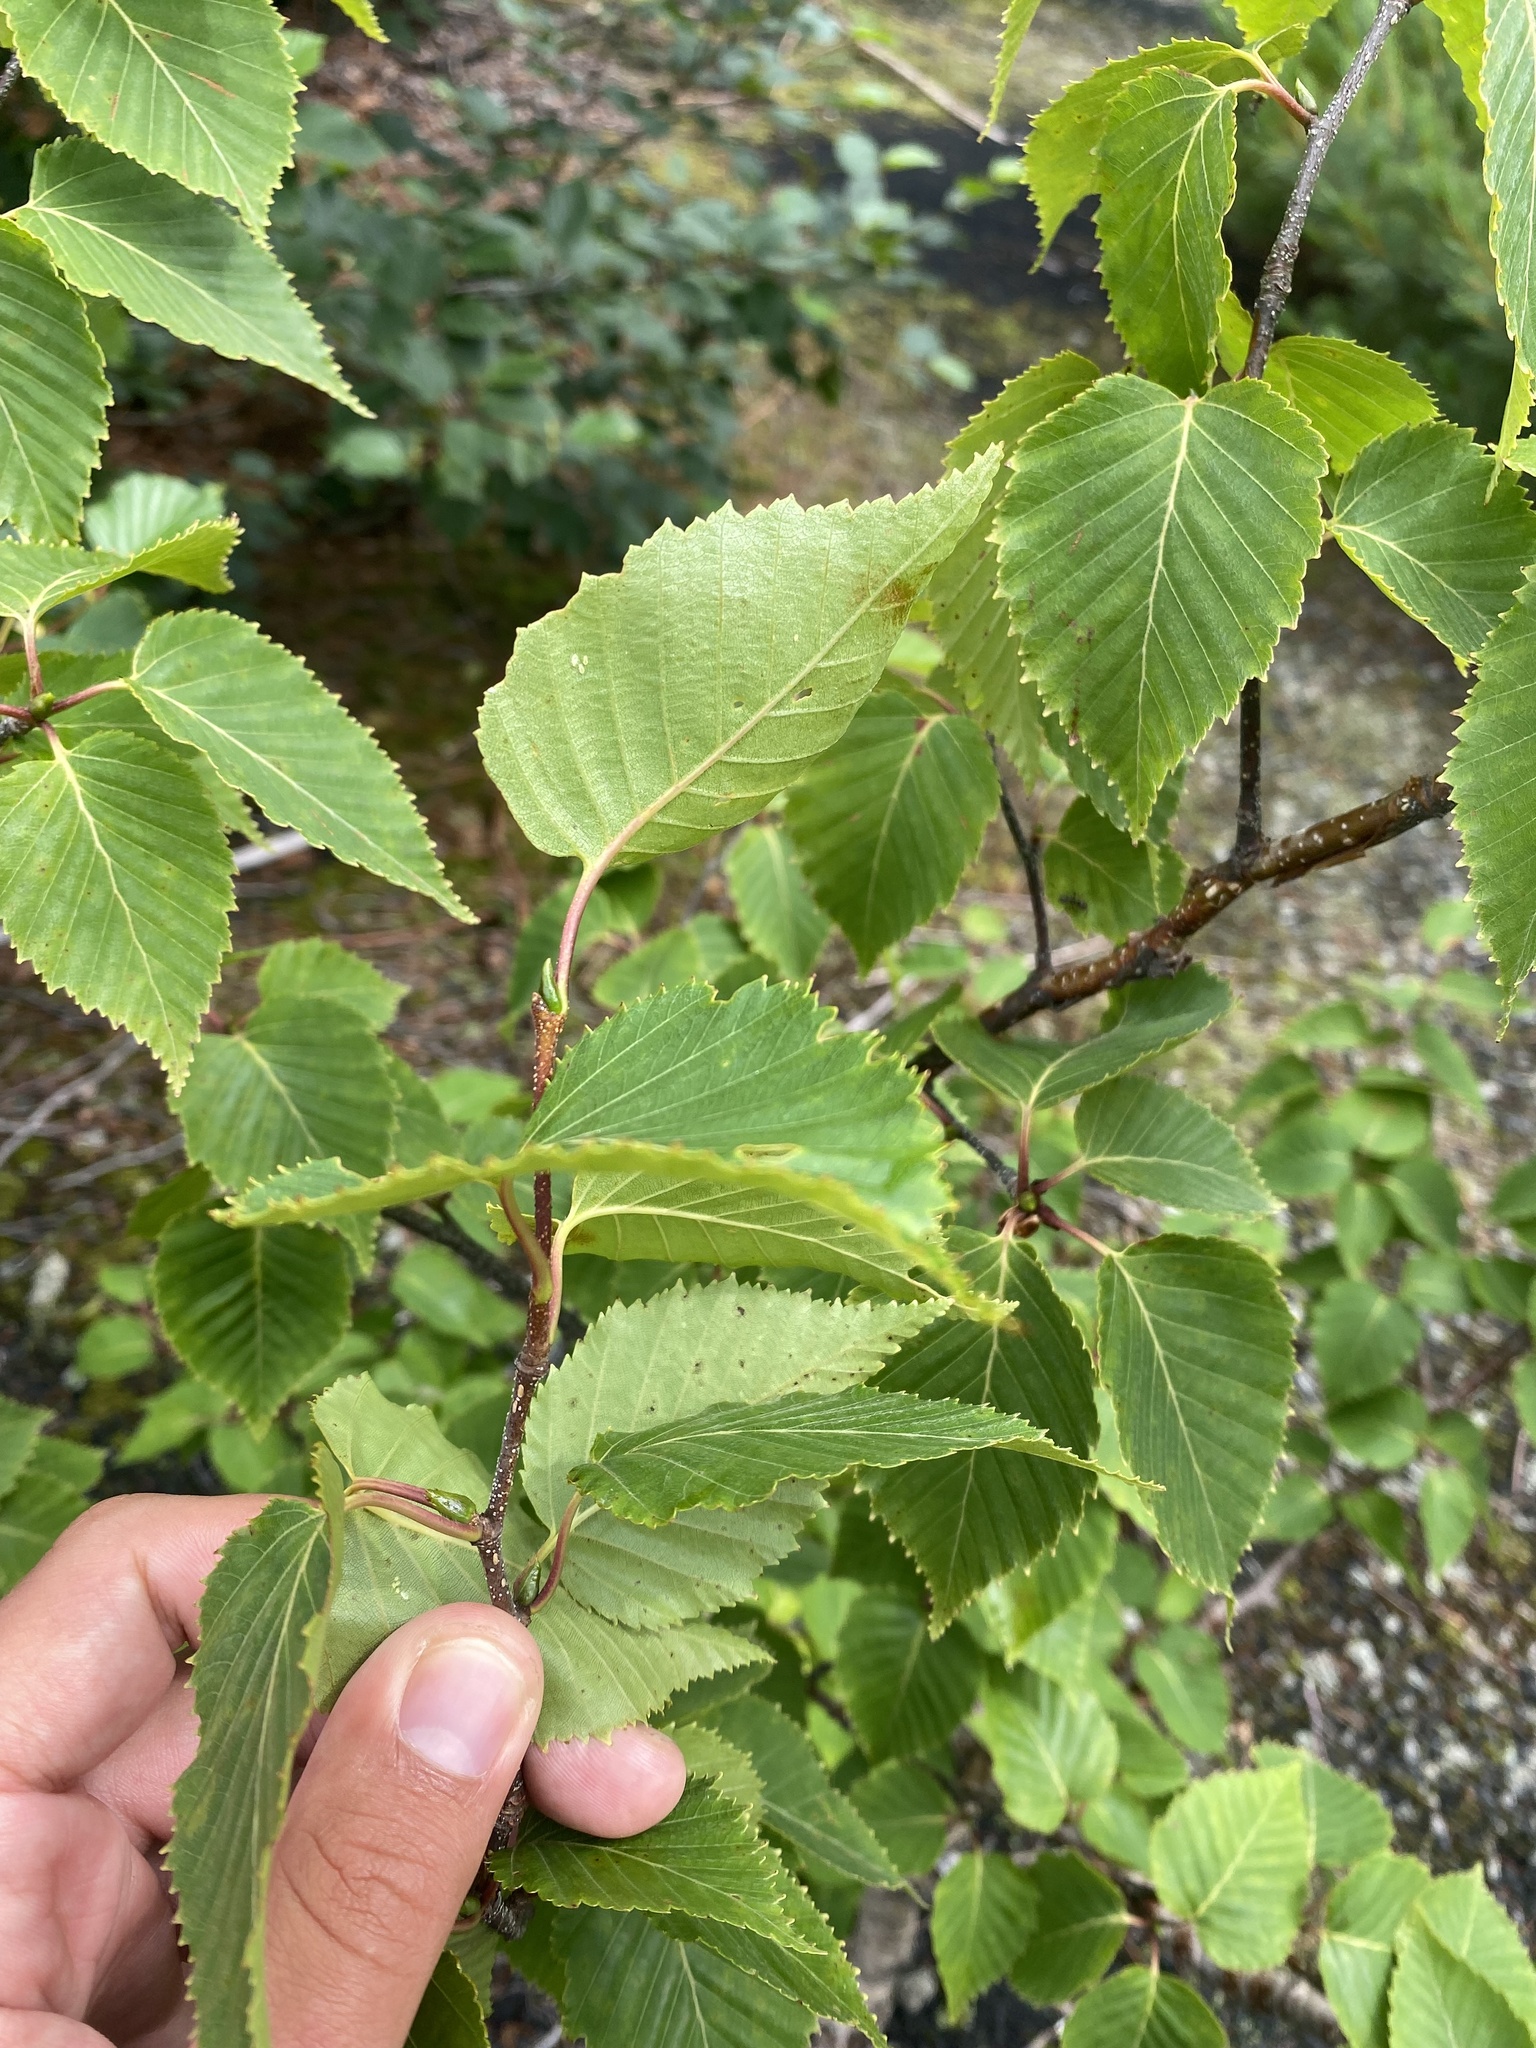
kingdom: Plantae
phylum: Tracheophyta
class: Magnoliopsida
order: Fagales
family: Betulaceae
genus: Betula
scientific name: Betula ermanii
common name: Erman's birch
